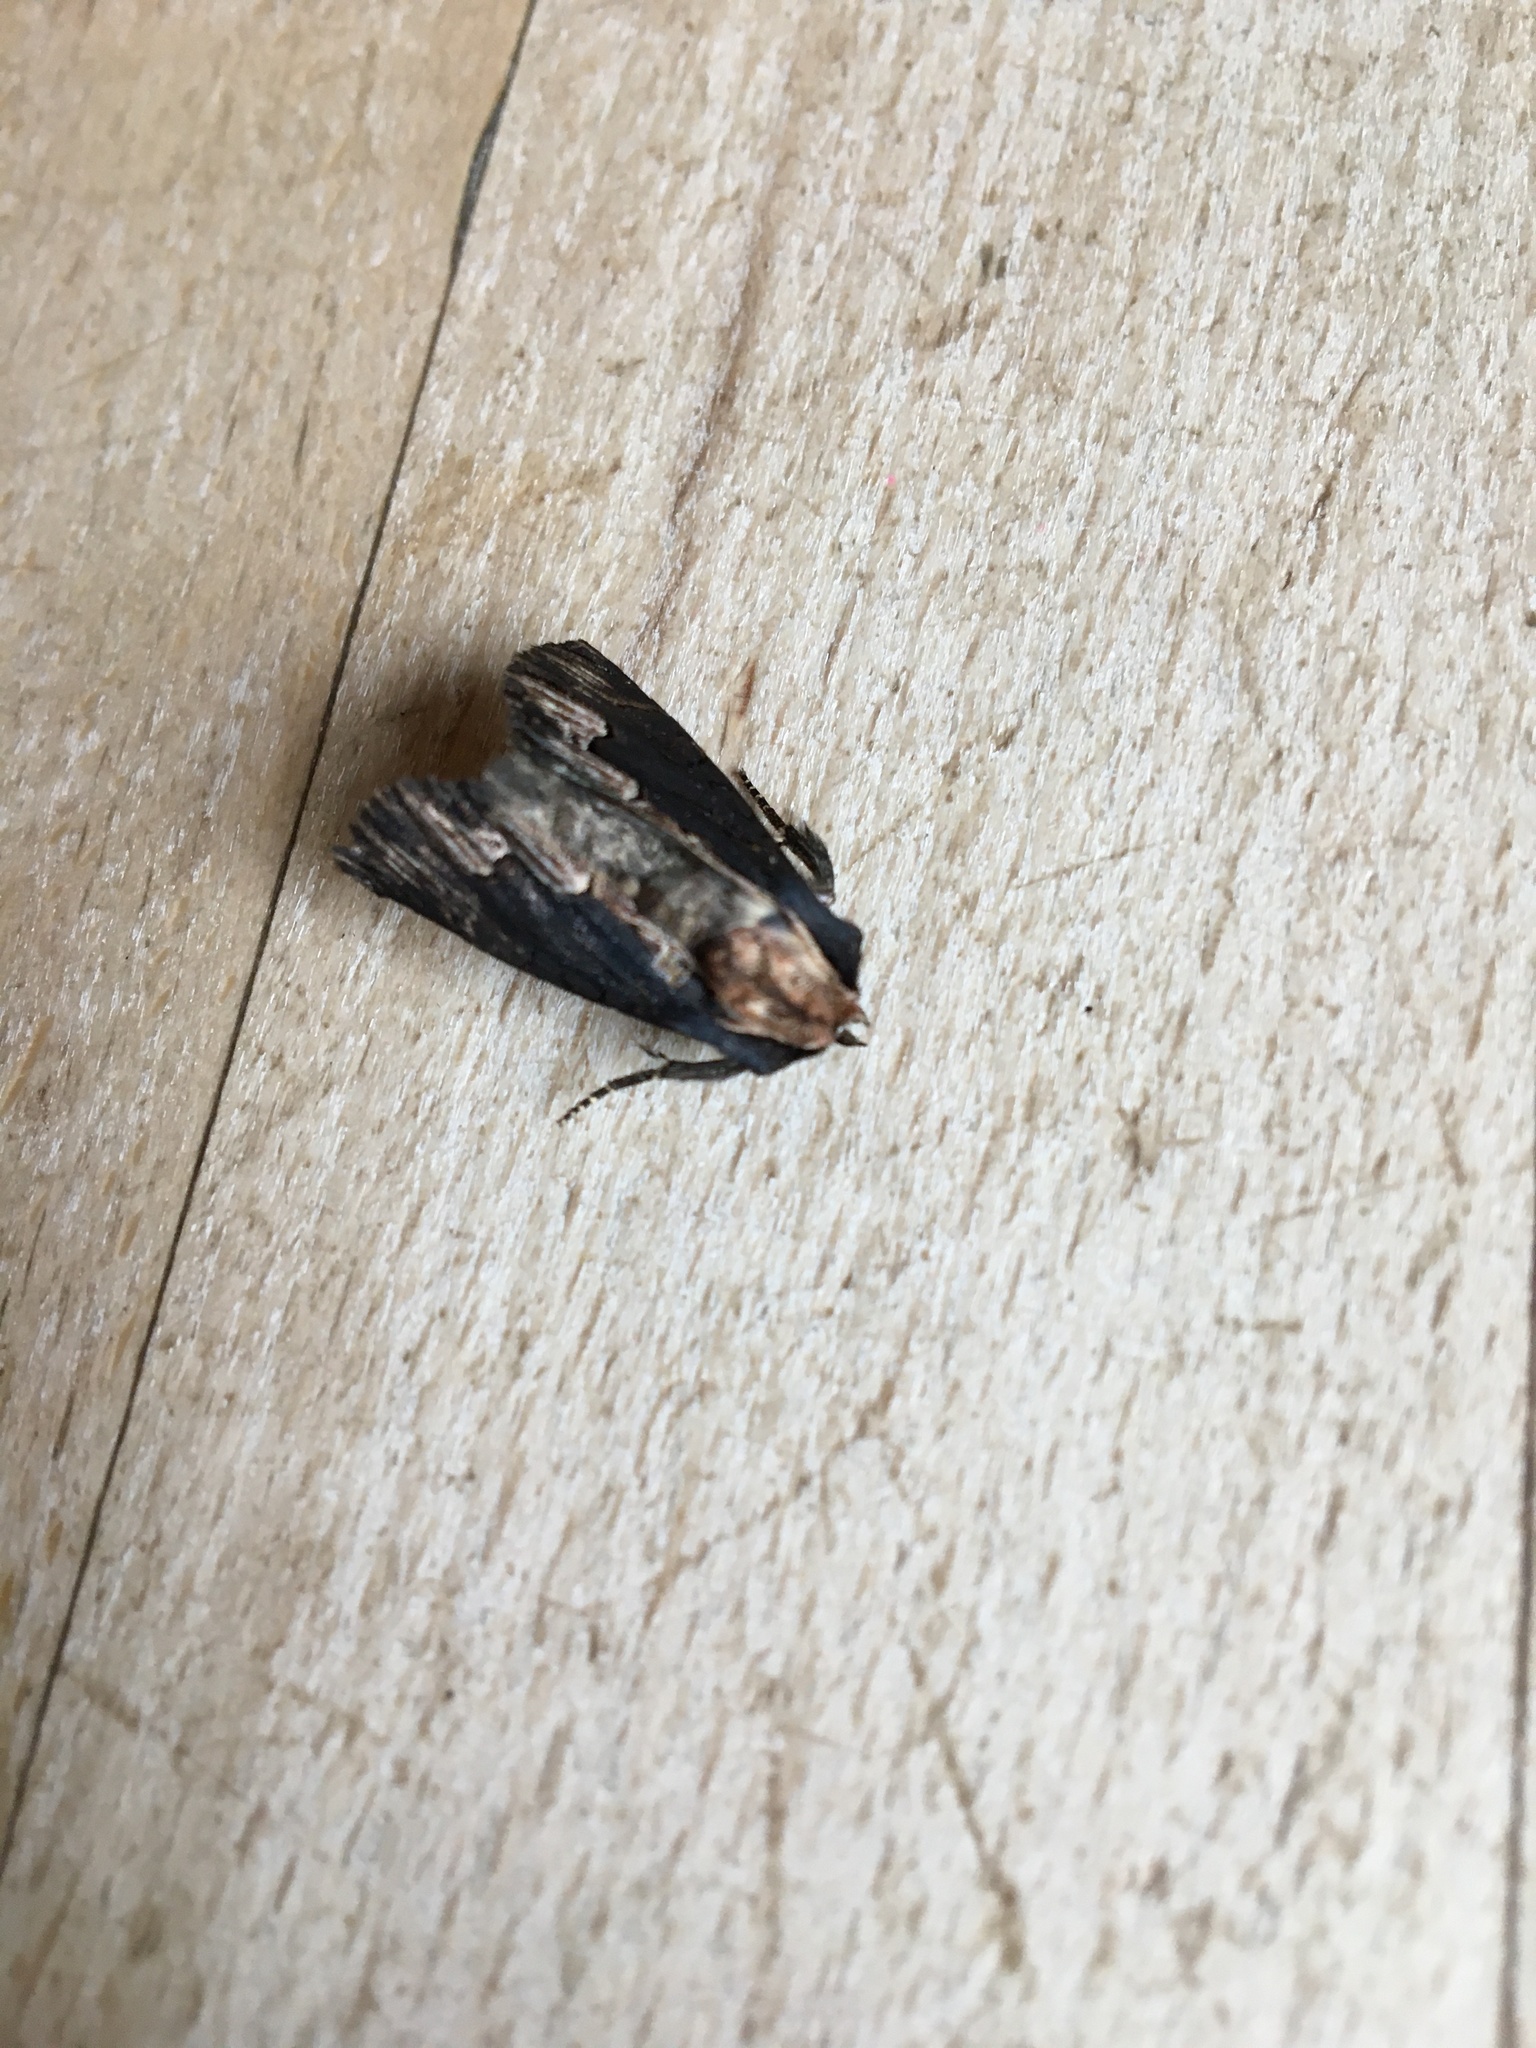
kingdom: Animalia
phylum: Arthropoda
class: Insecta
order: Lepidoptera
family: Noctuidae
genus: Dypterygia
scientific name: Dypterygia scabriuscula
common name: Bird's wing
